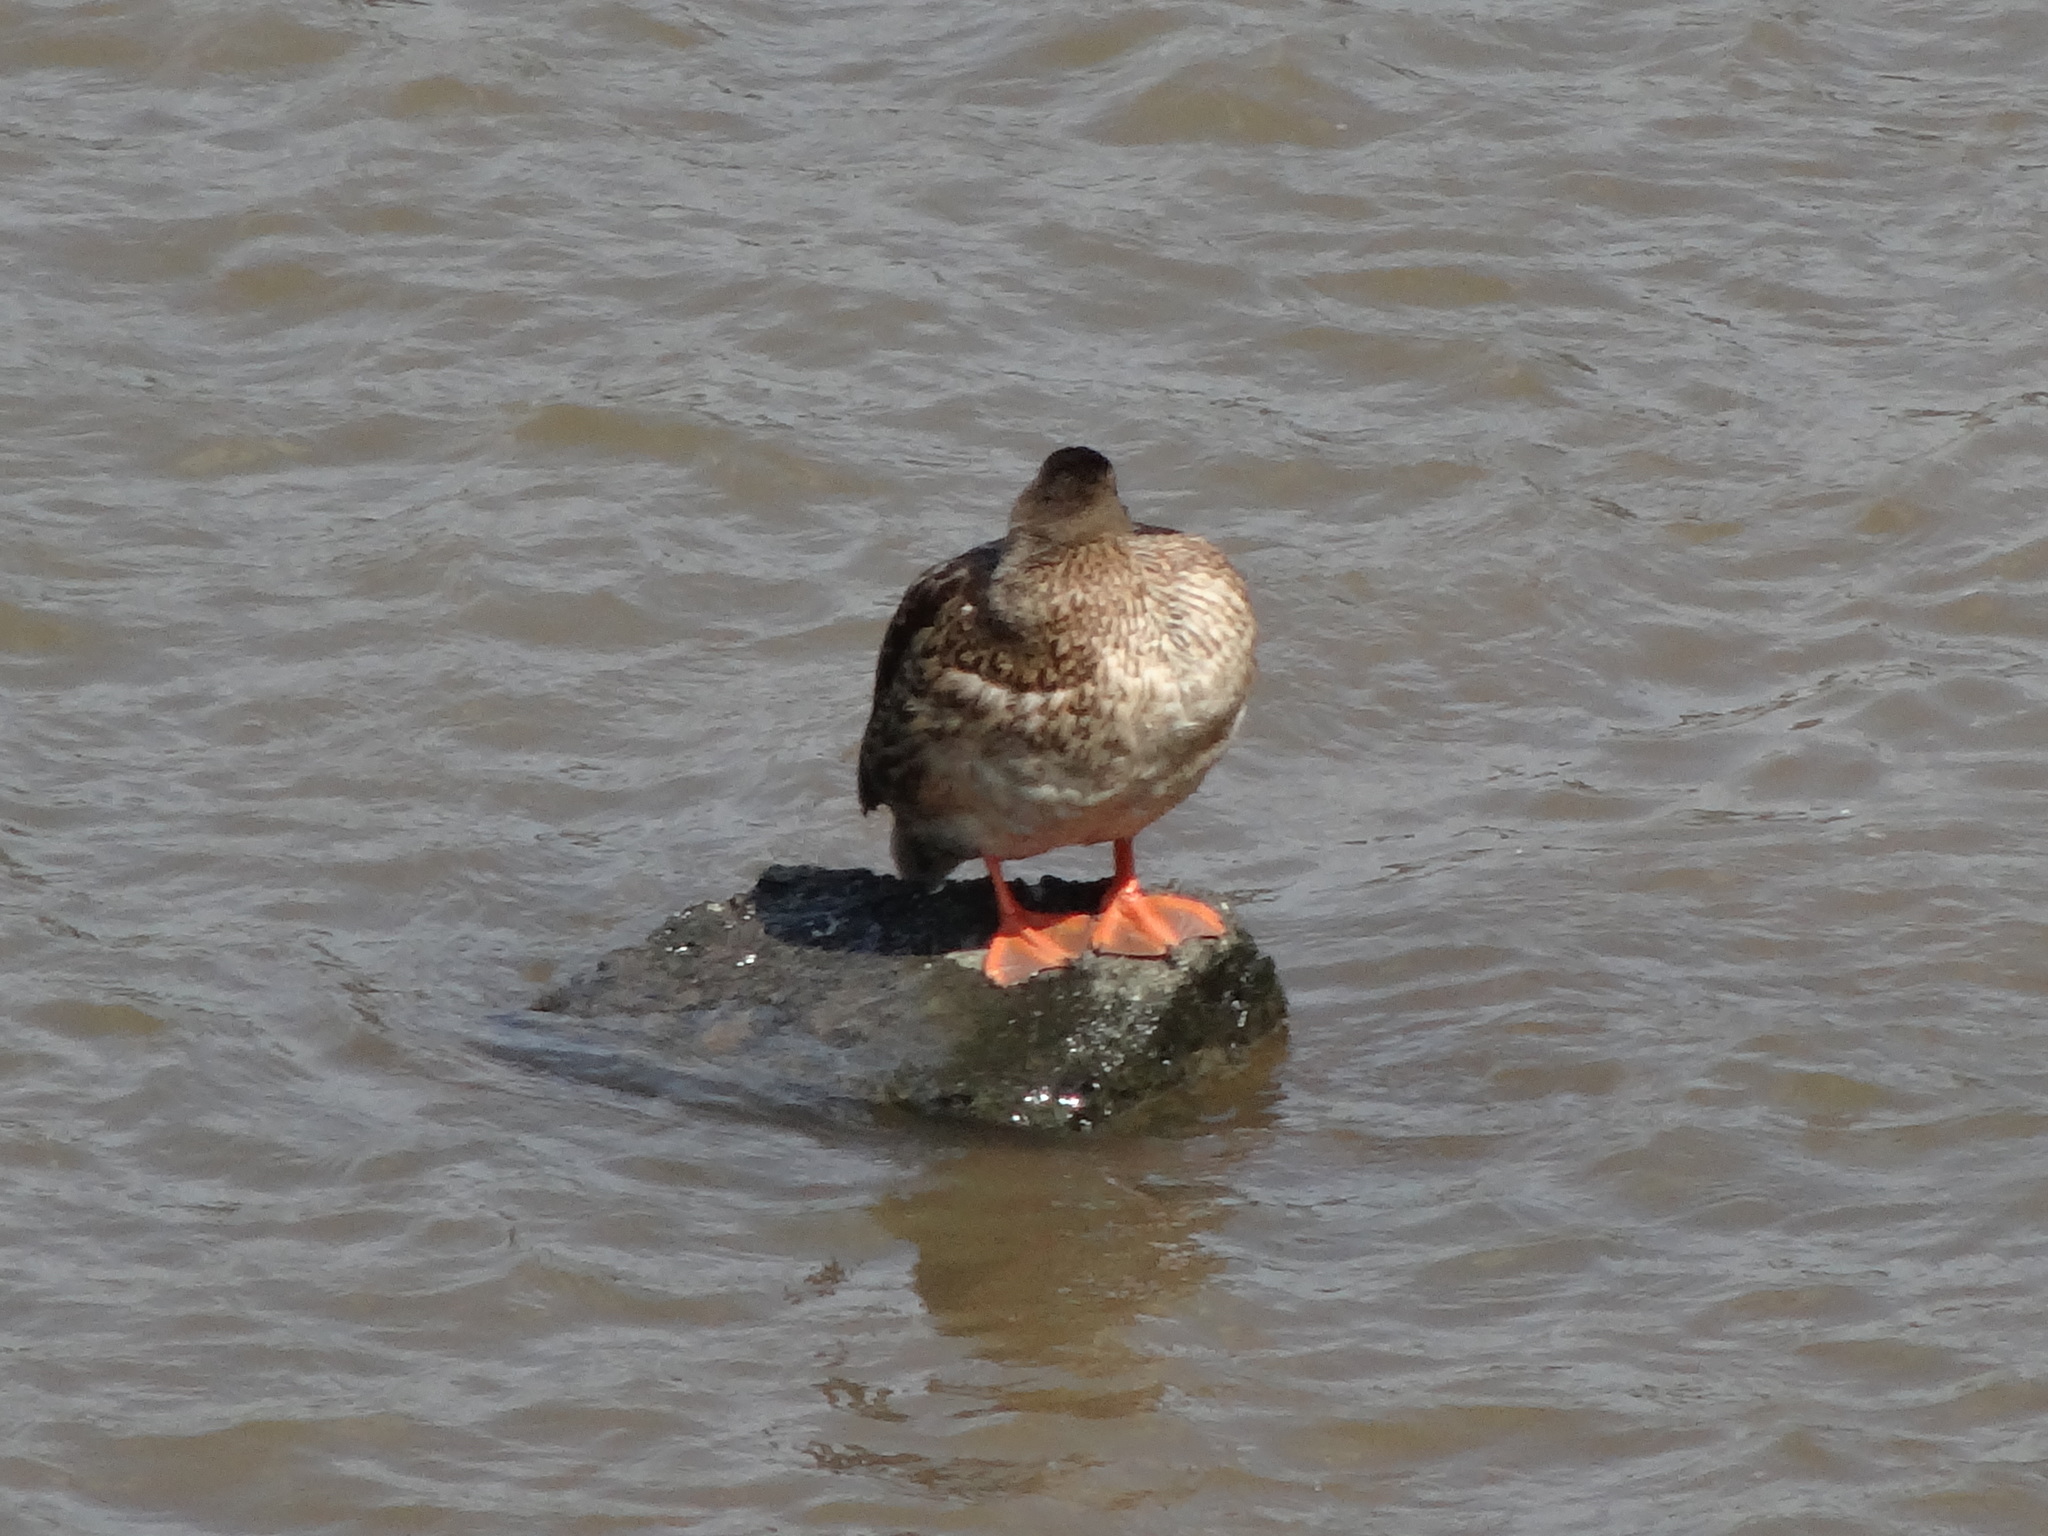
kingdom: Animalia
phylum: Chordata
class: Aves
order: Anseriformes
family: Anatidae
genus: Anas
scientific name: Anas platyrhynchos
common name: Mallard
